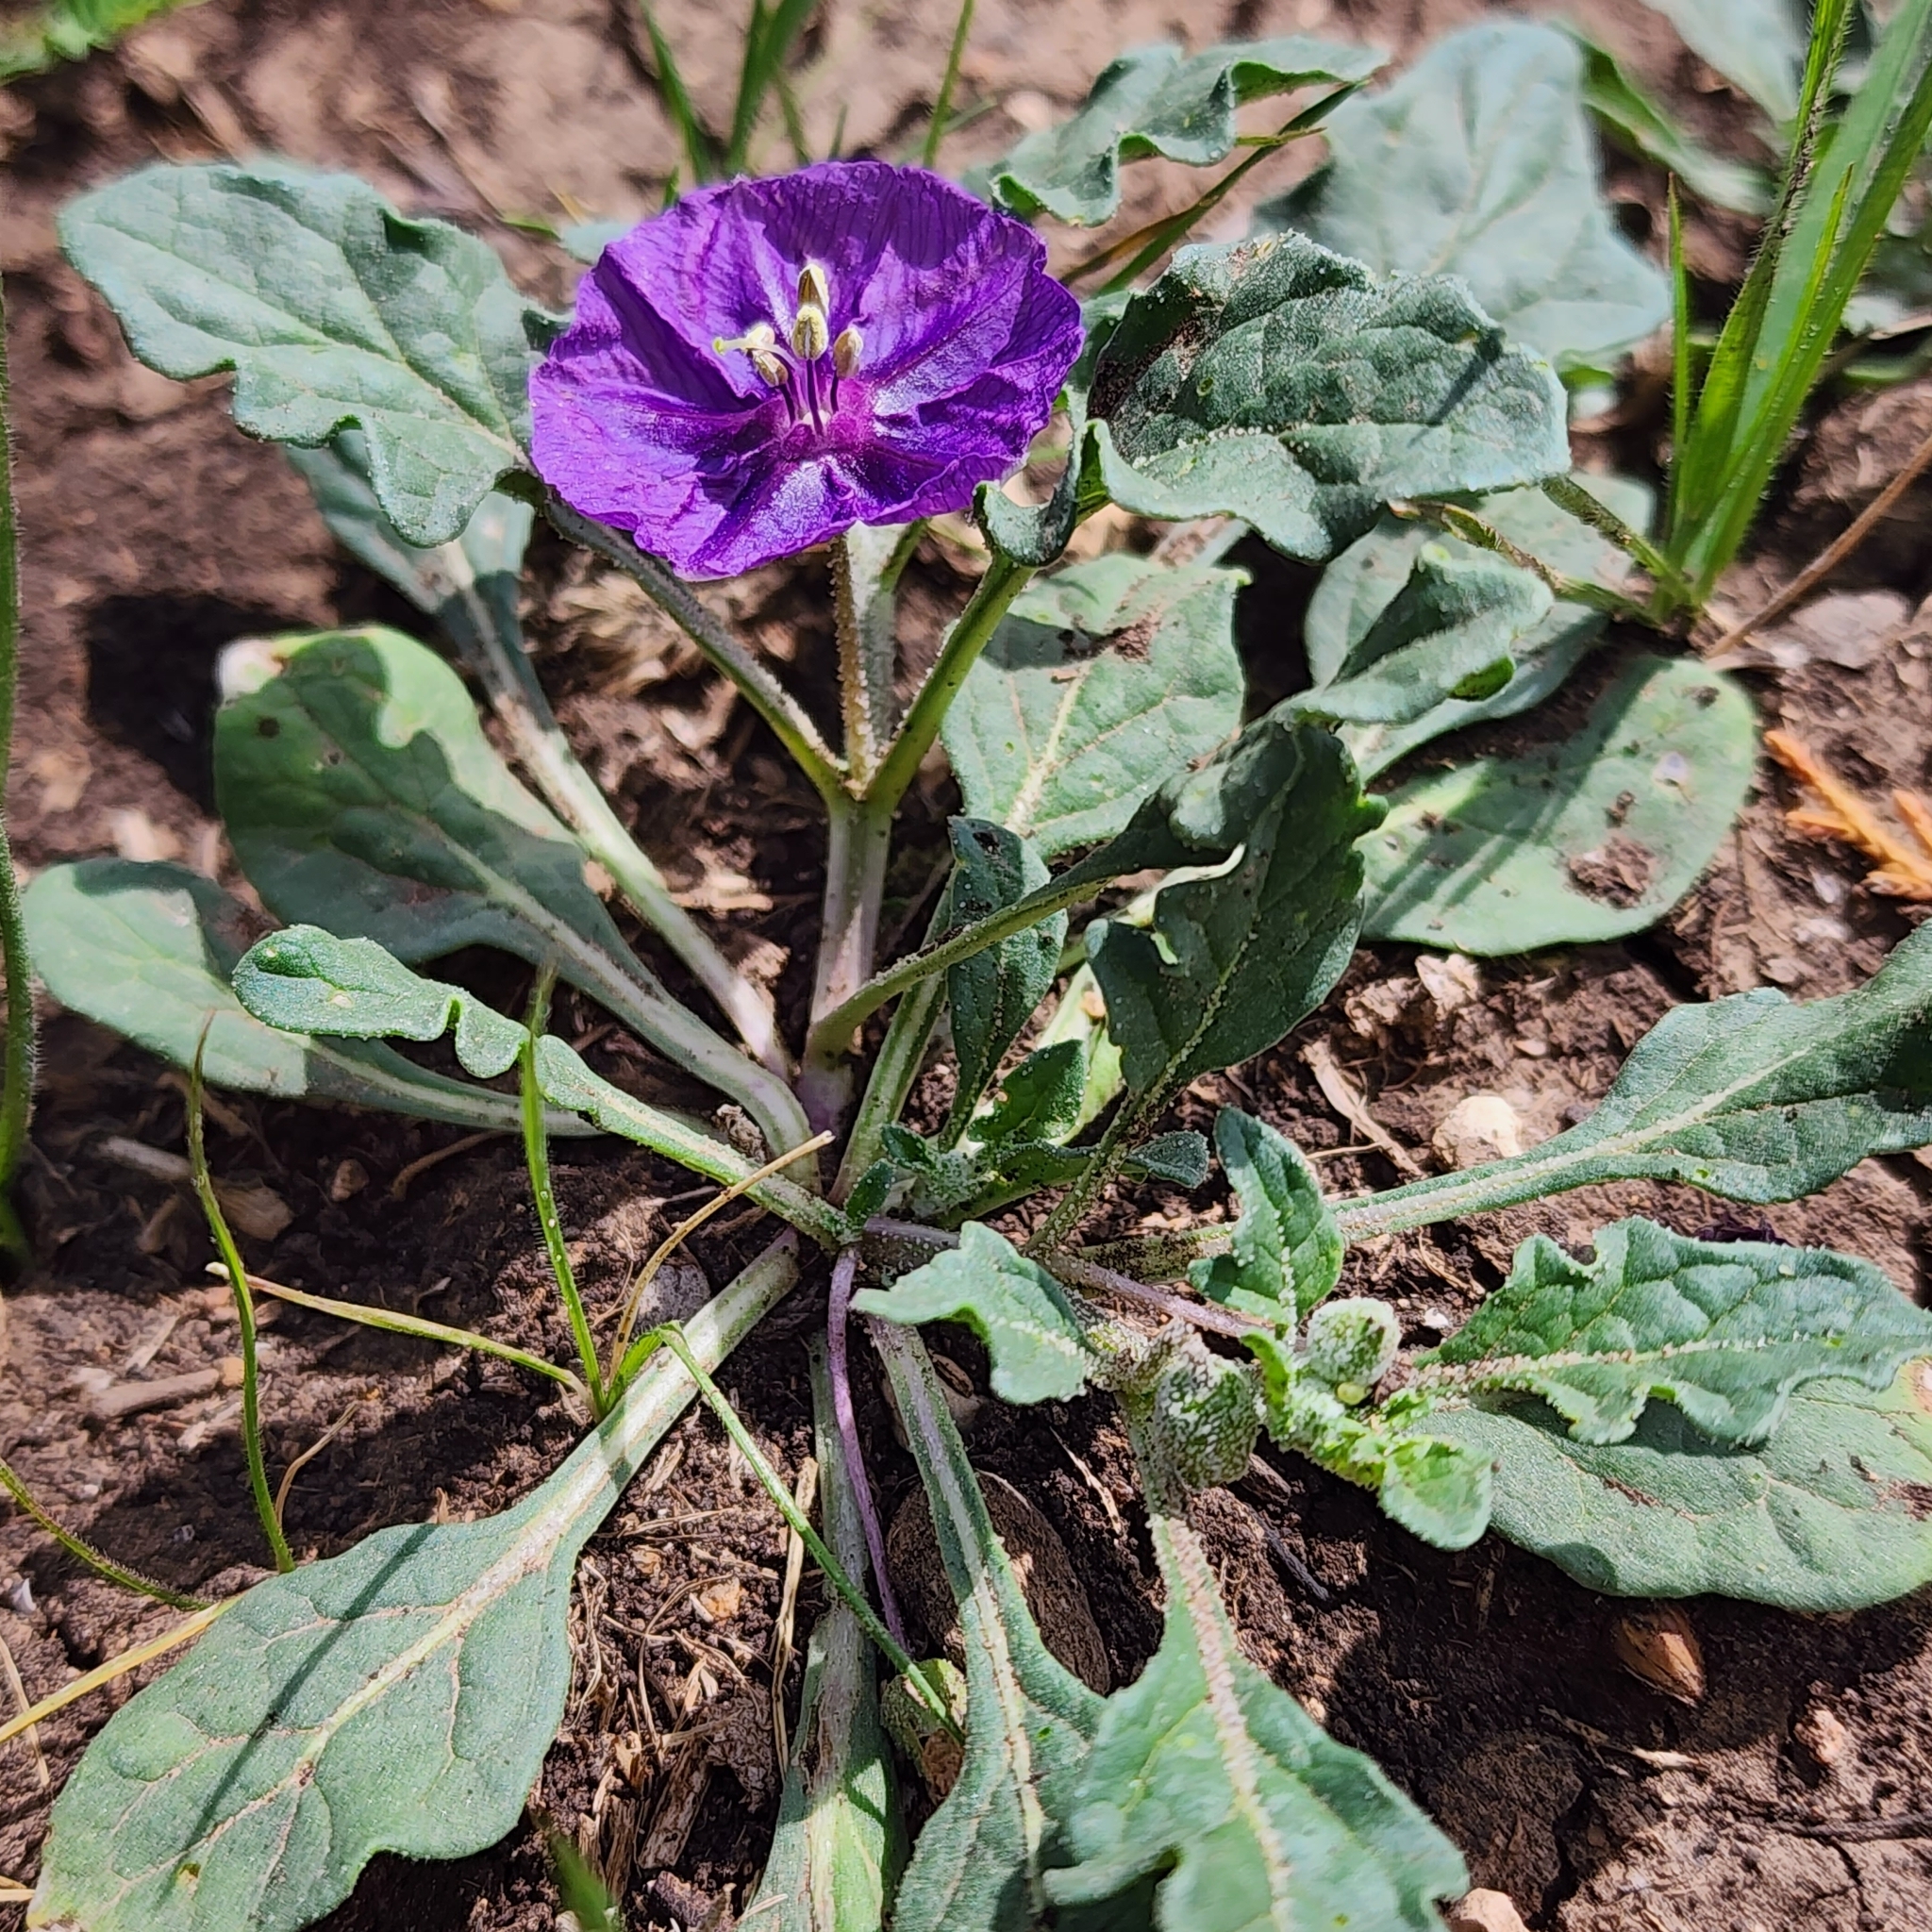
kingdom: Plantae
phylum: Tracheophyta
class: Magnoliopsida
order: Solanales
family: Solanaceae
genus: Quincula
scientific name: Quincula lobata
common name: Purple-ground-cherry
